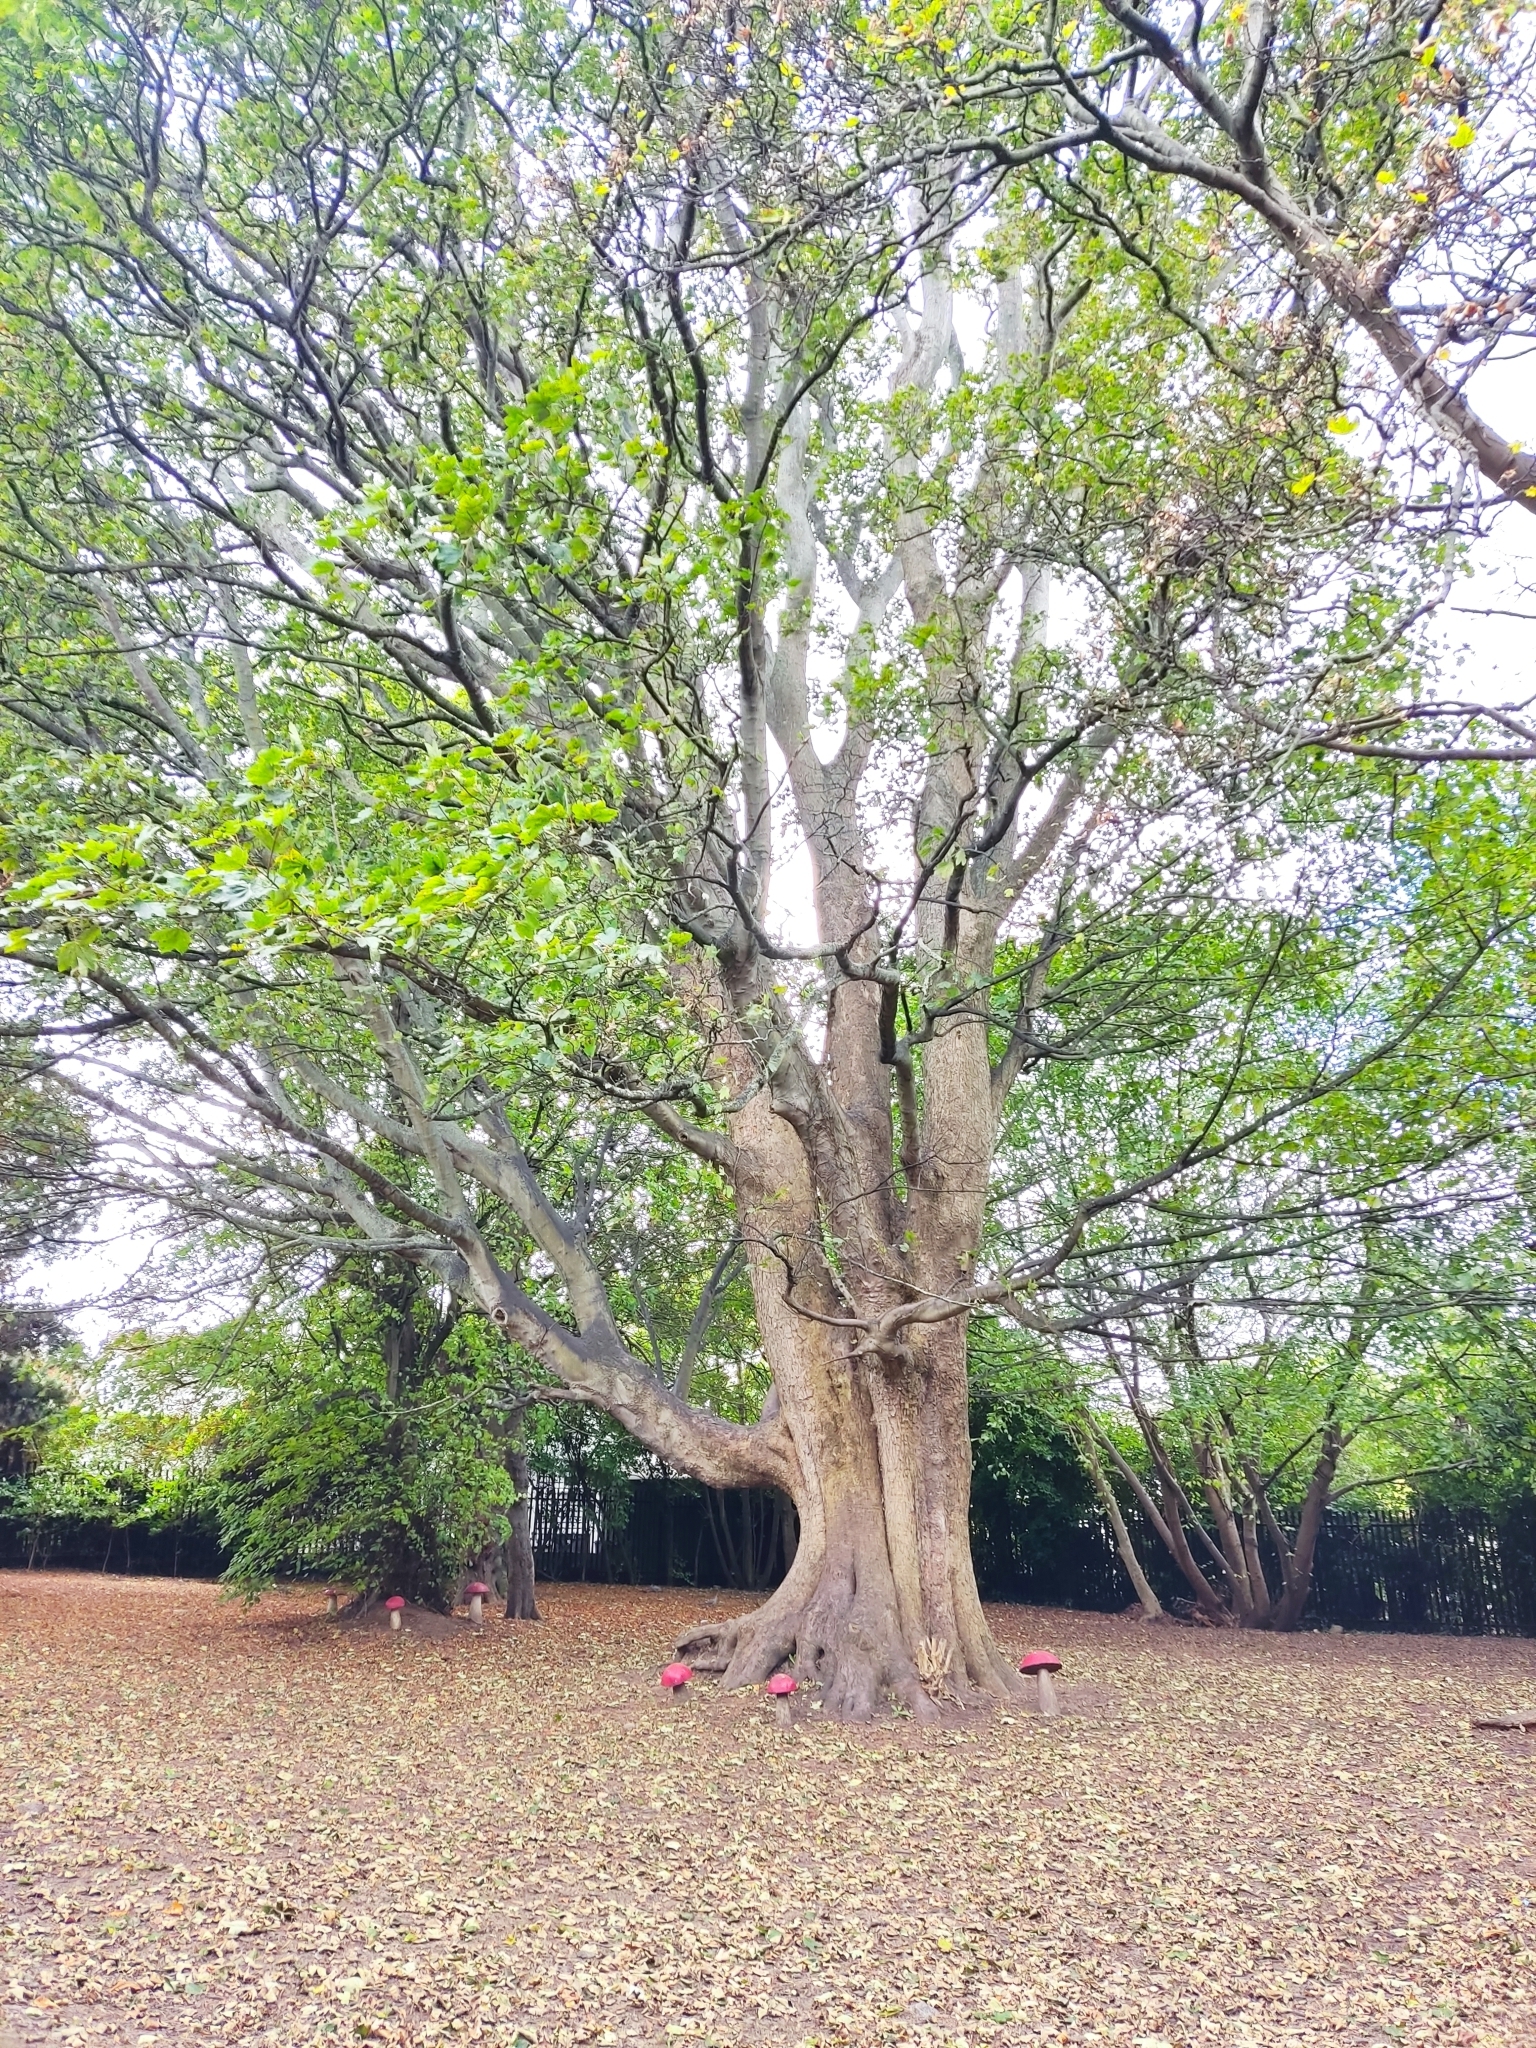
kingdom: Plantae
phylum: Tracheophyta
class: Magnoliopsida
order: Sapindales
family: Sapindaceae
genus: Acer
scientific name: Acer pseudoplatanus
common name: Sycamore
